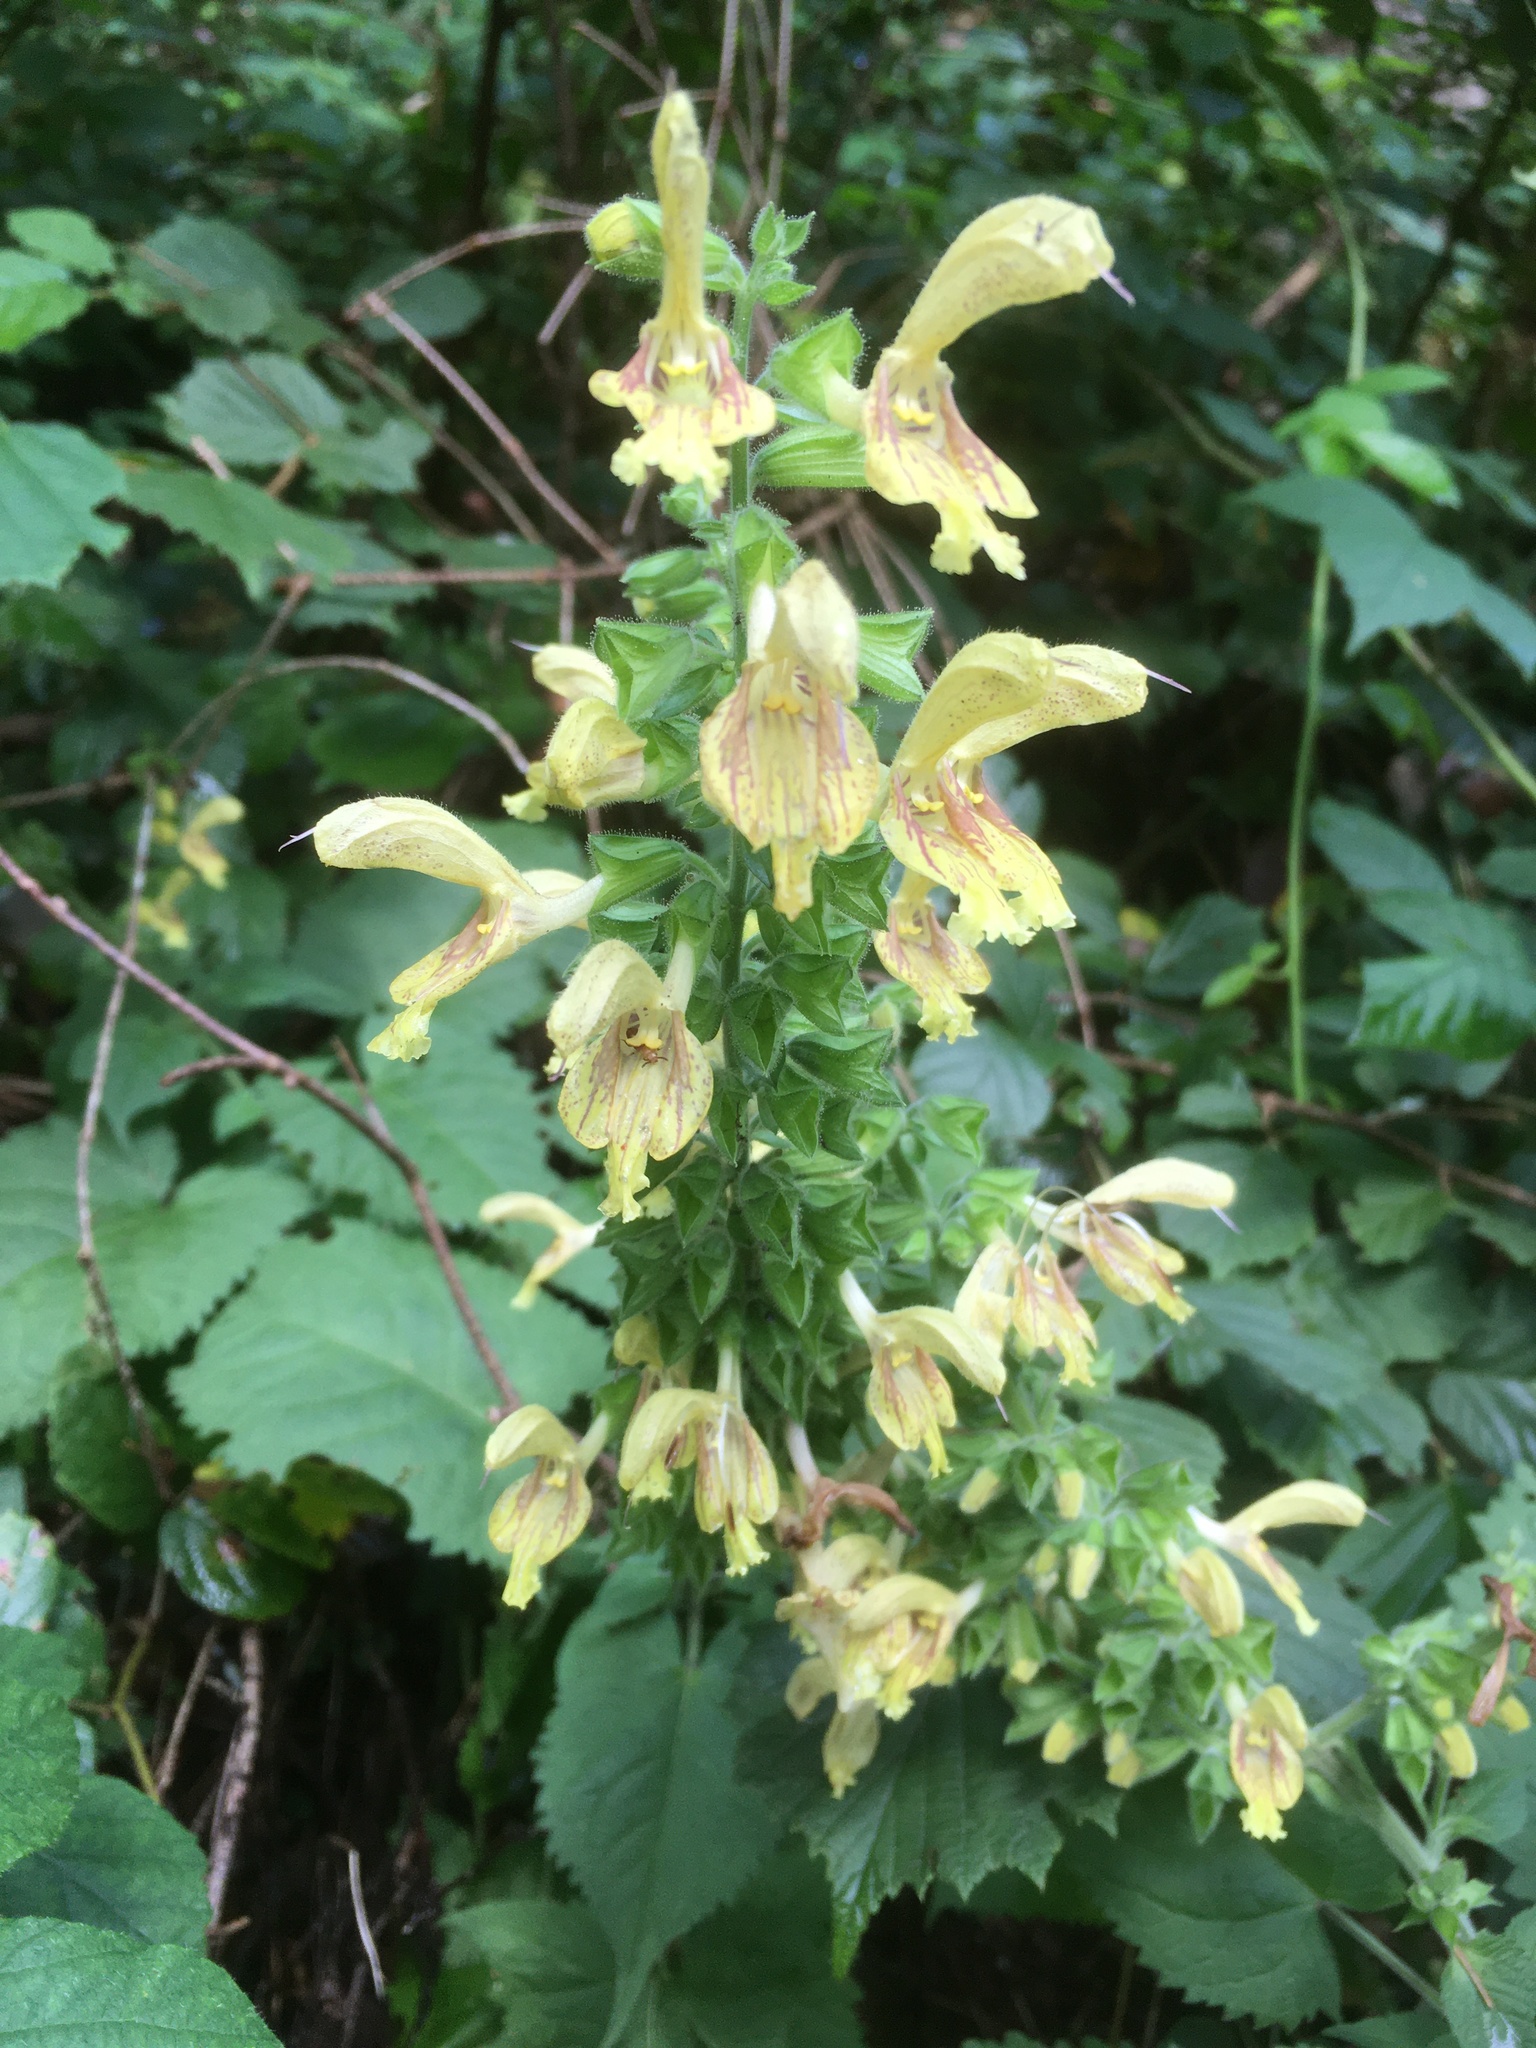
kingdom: Plantae
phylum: Tracheophyta
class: Magnoliopsida
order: Lamiales
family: Lamiaceae
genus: Salvia
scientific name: Salvia glutinosa
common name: Sticky clary
